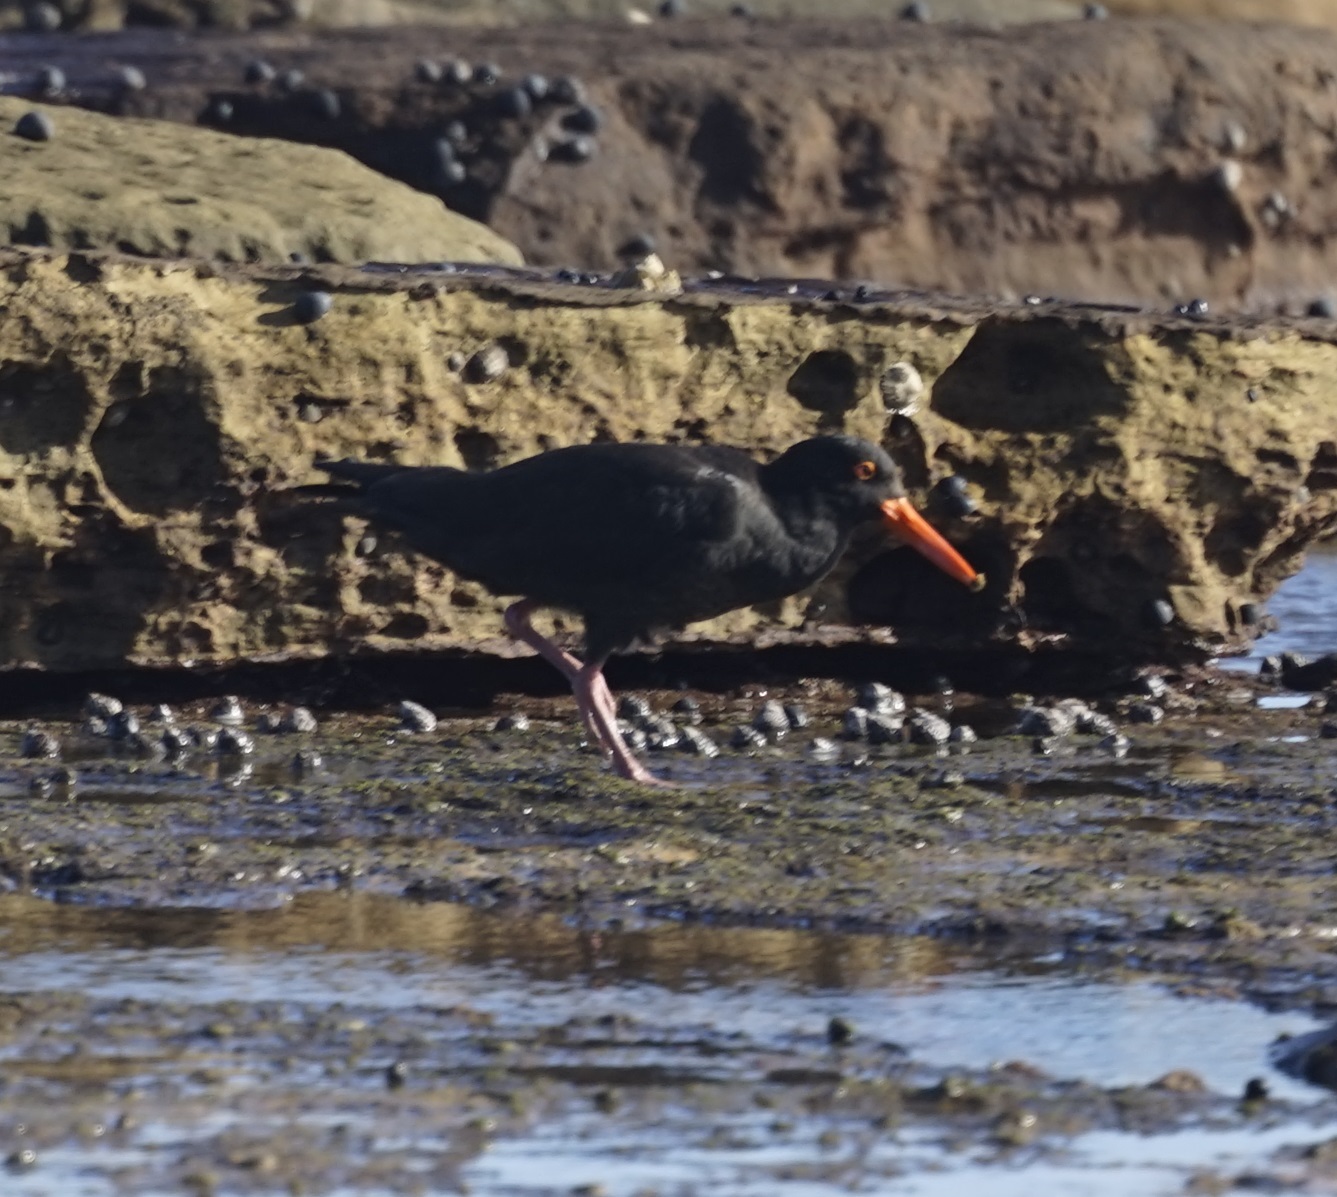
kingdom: Animalia
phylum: Chordata
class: Aves
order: Charadriiformes
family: Haematopodidae
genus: Haematopus
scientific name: Haematopus fuliginosus
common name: Sooty oystercatcher
